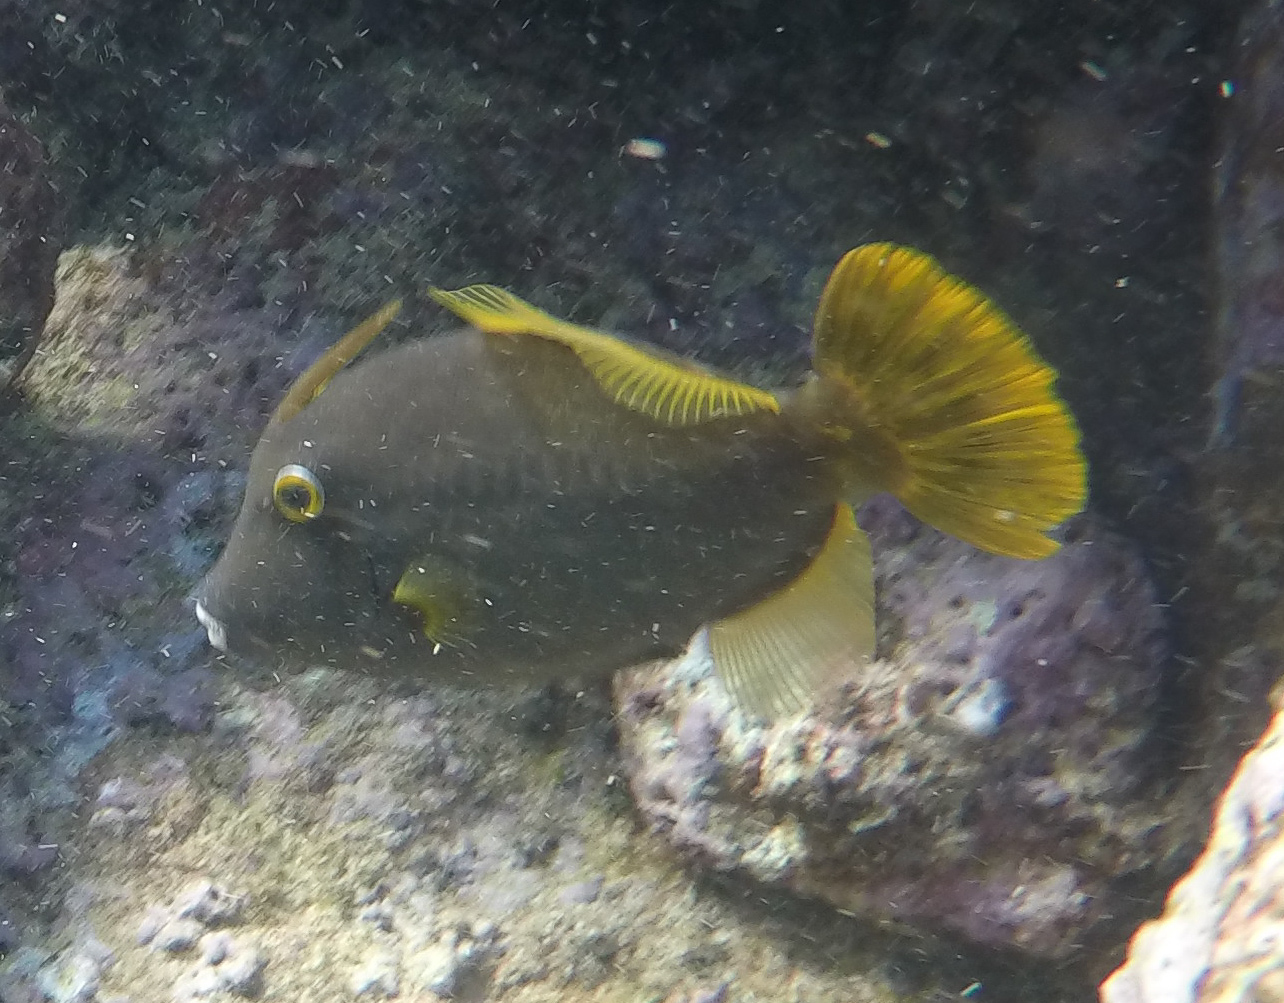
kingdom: Animalia
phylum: Chordata
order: Tetraodontiformes
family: Monacanthidae
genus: Cantherhines
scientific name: Cantherhines dumerilii
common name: Barred filefish
